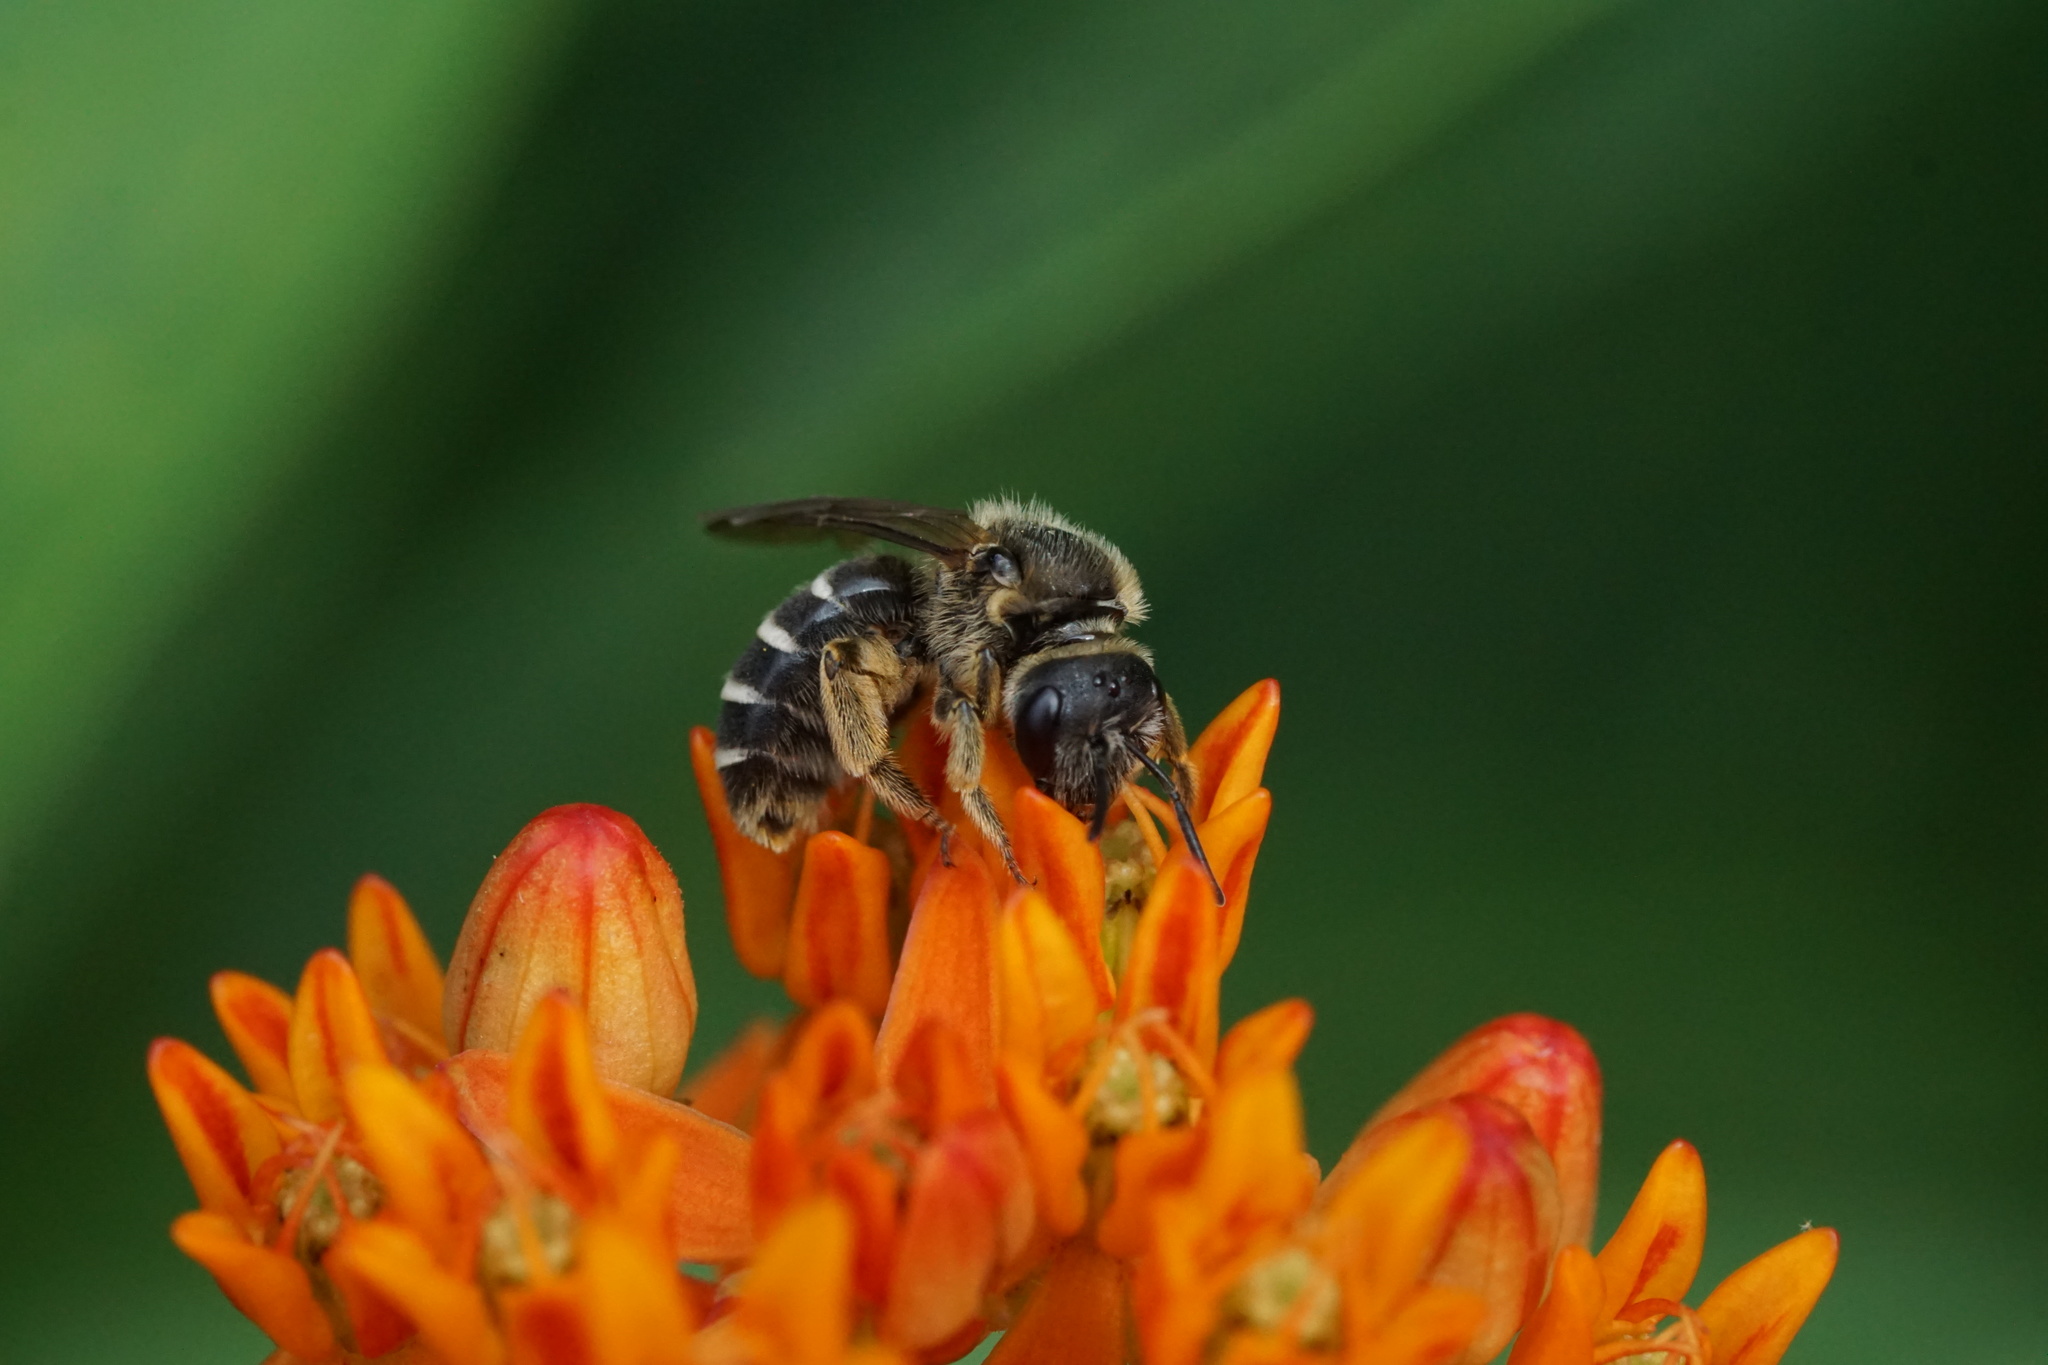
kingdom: Animalia
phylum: Arthropoda
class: Insecta
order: Hymenoptera
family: Halictidae
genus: Halictus
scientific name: Halictus rubicundus
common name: Orange-legged furrow bee
